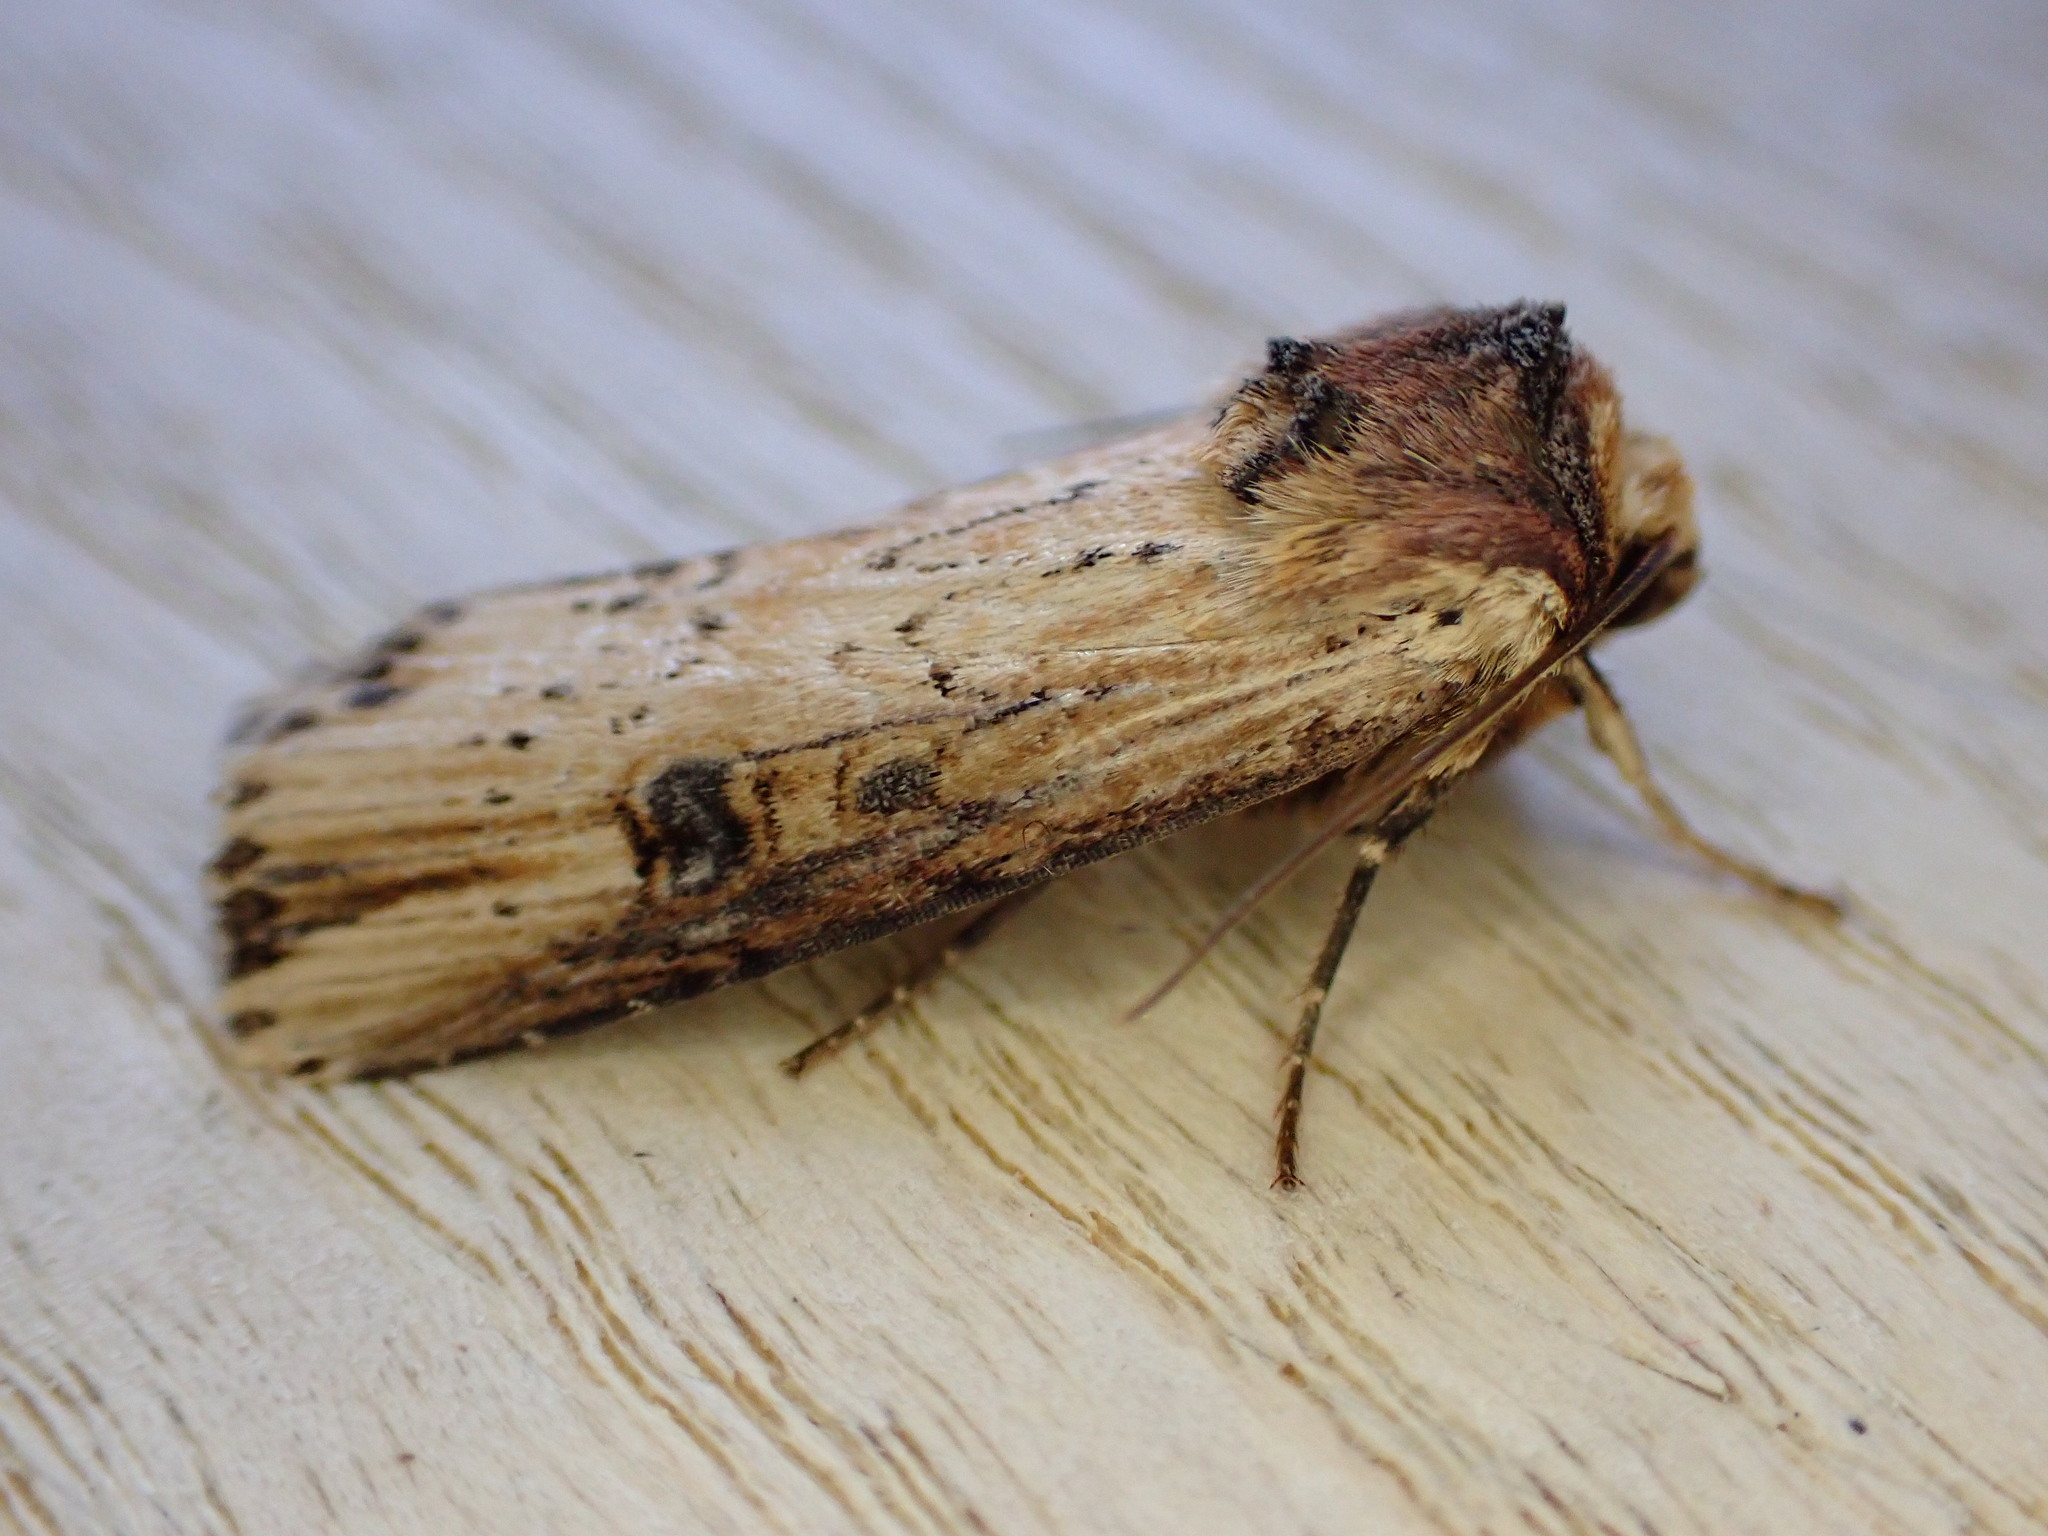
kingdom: Animalia
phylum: Arthropoda
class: Insecta
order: Lepidoptera
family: Noctuidae
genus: Axylia
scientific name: Axylia putris
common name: Flame
